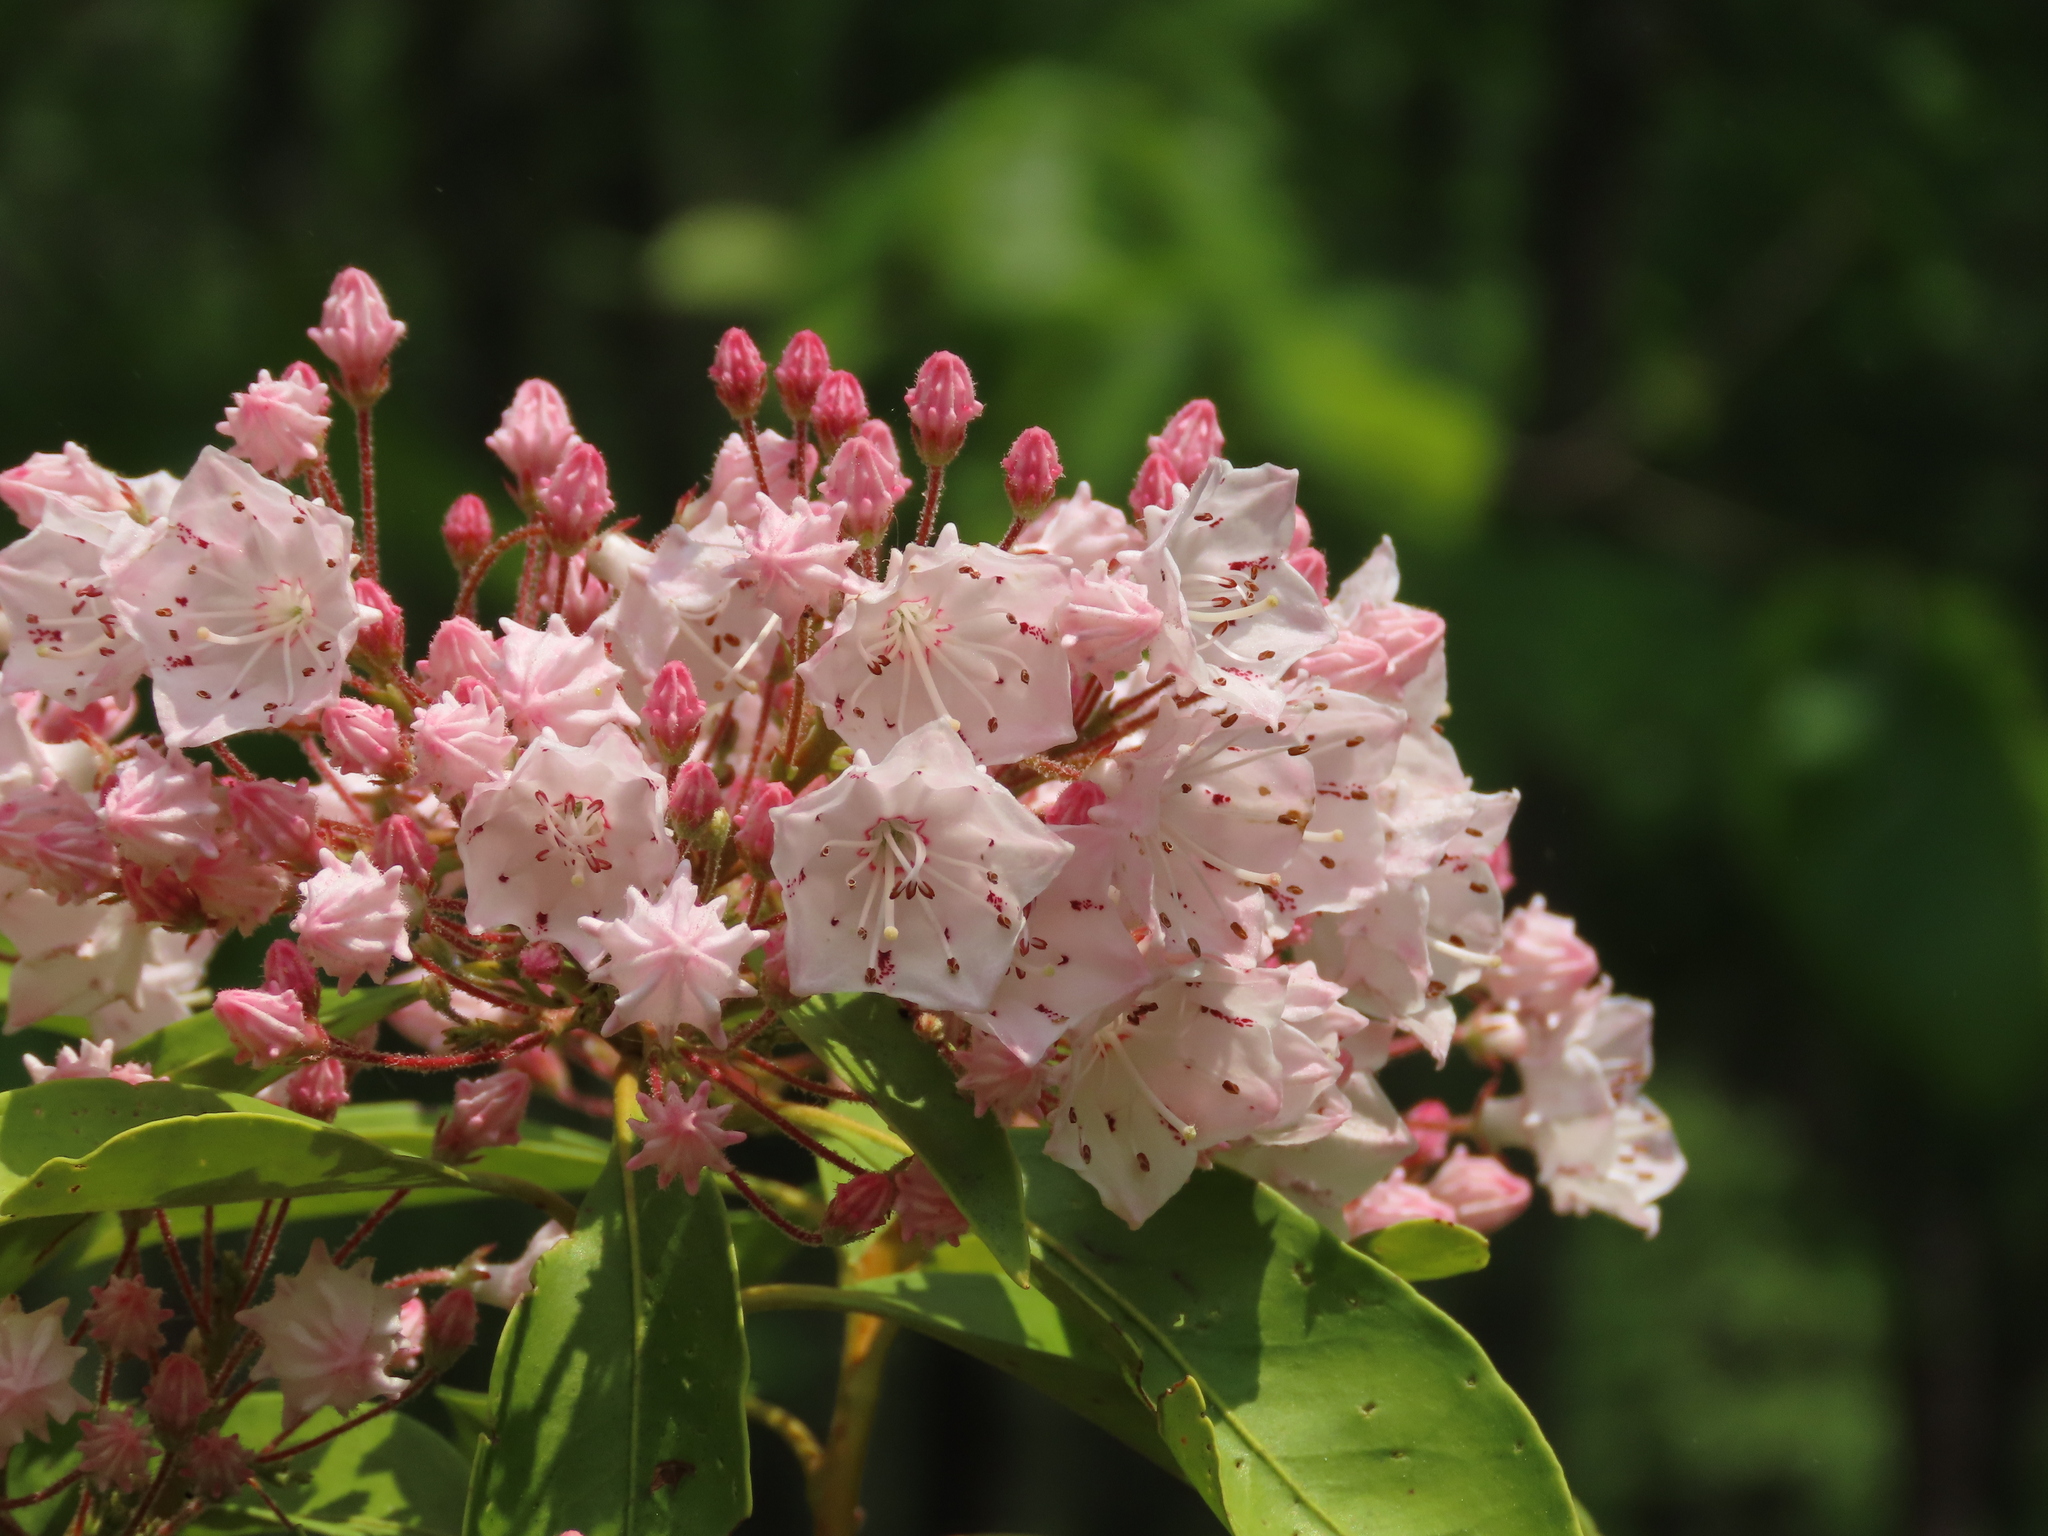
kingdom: Plantae
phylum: Tracheophyta
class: Magnoliopsida
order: Ericales
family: Ericaceae
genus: Kalmia
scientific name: Kalmia latifolia
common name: Mountain-laurel
